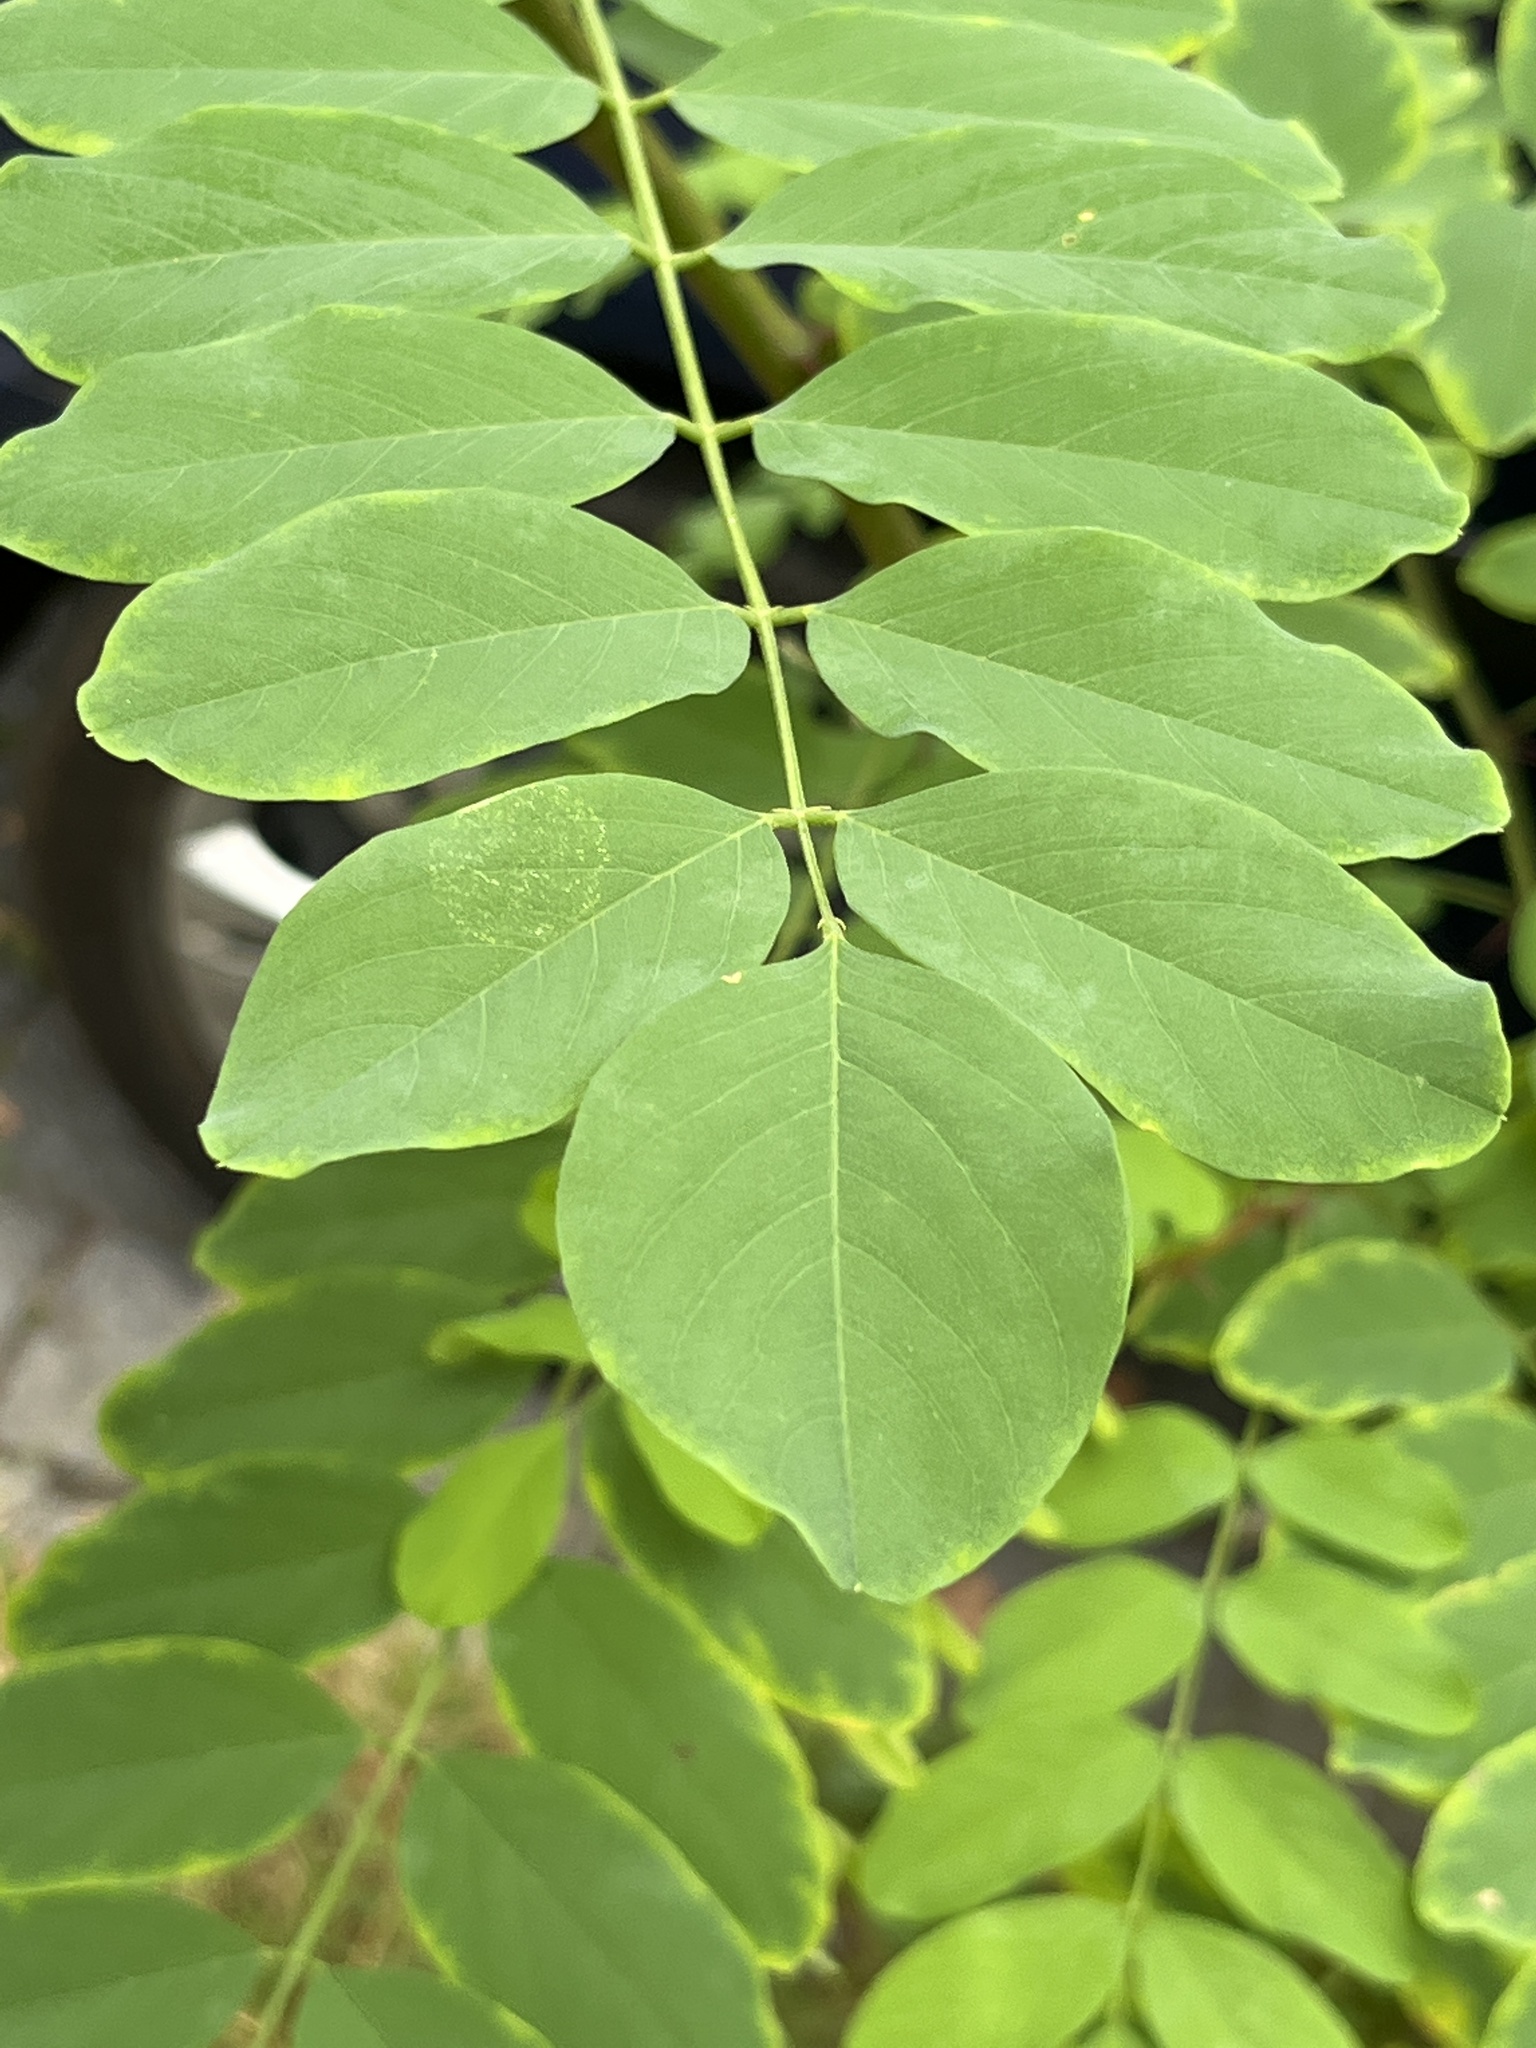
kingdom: Plantae
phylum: Tracheophyta
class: Magnoliopsida
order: Fabales
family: Fabaceae
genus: Robinia
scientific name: Robinia pseudoacacia
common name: Black locust
